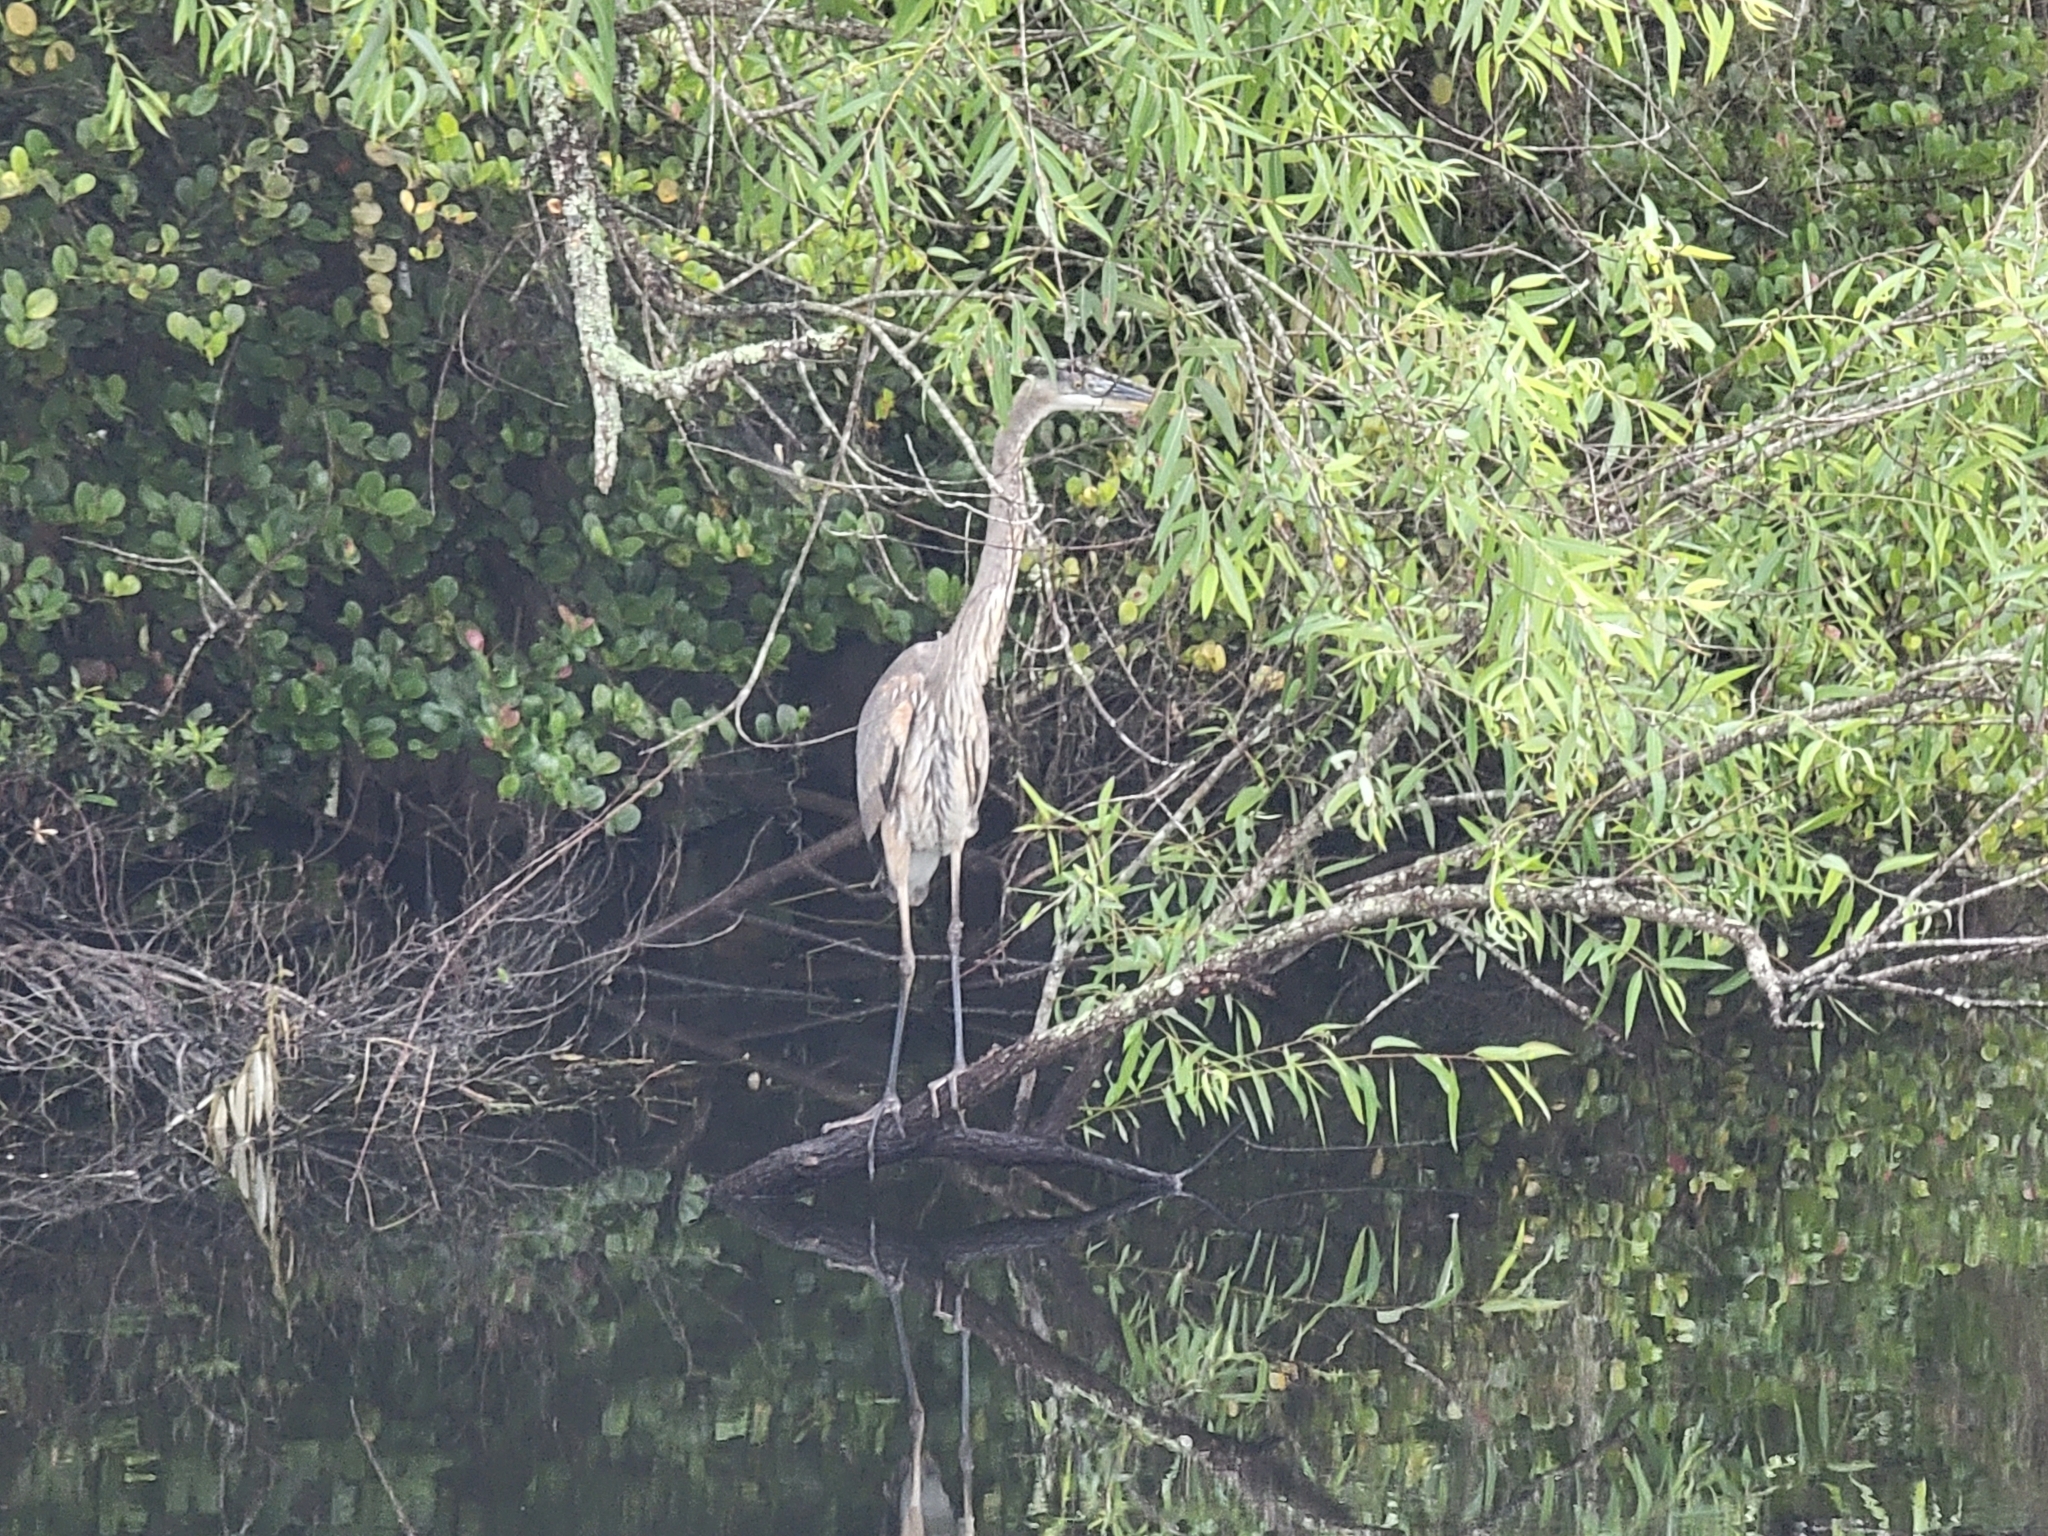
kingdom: Animalia
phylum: Chordata
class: Aves
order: Pelecaniformes
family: Ardeidae
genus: Ardea
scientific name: Ardea herodias
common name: Great blue heron
